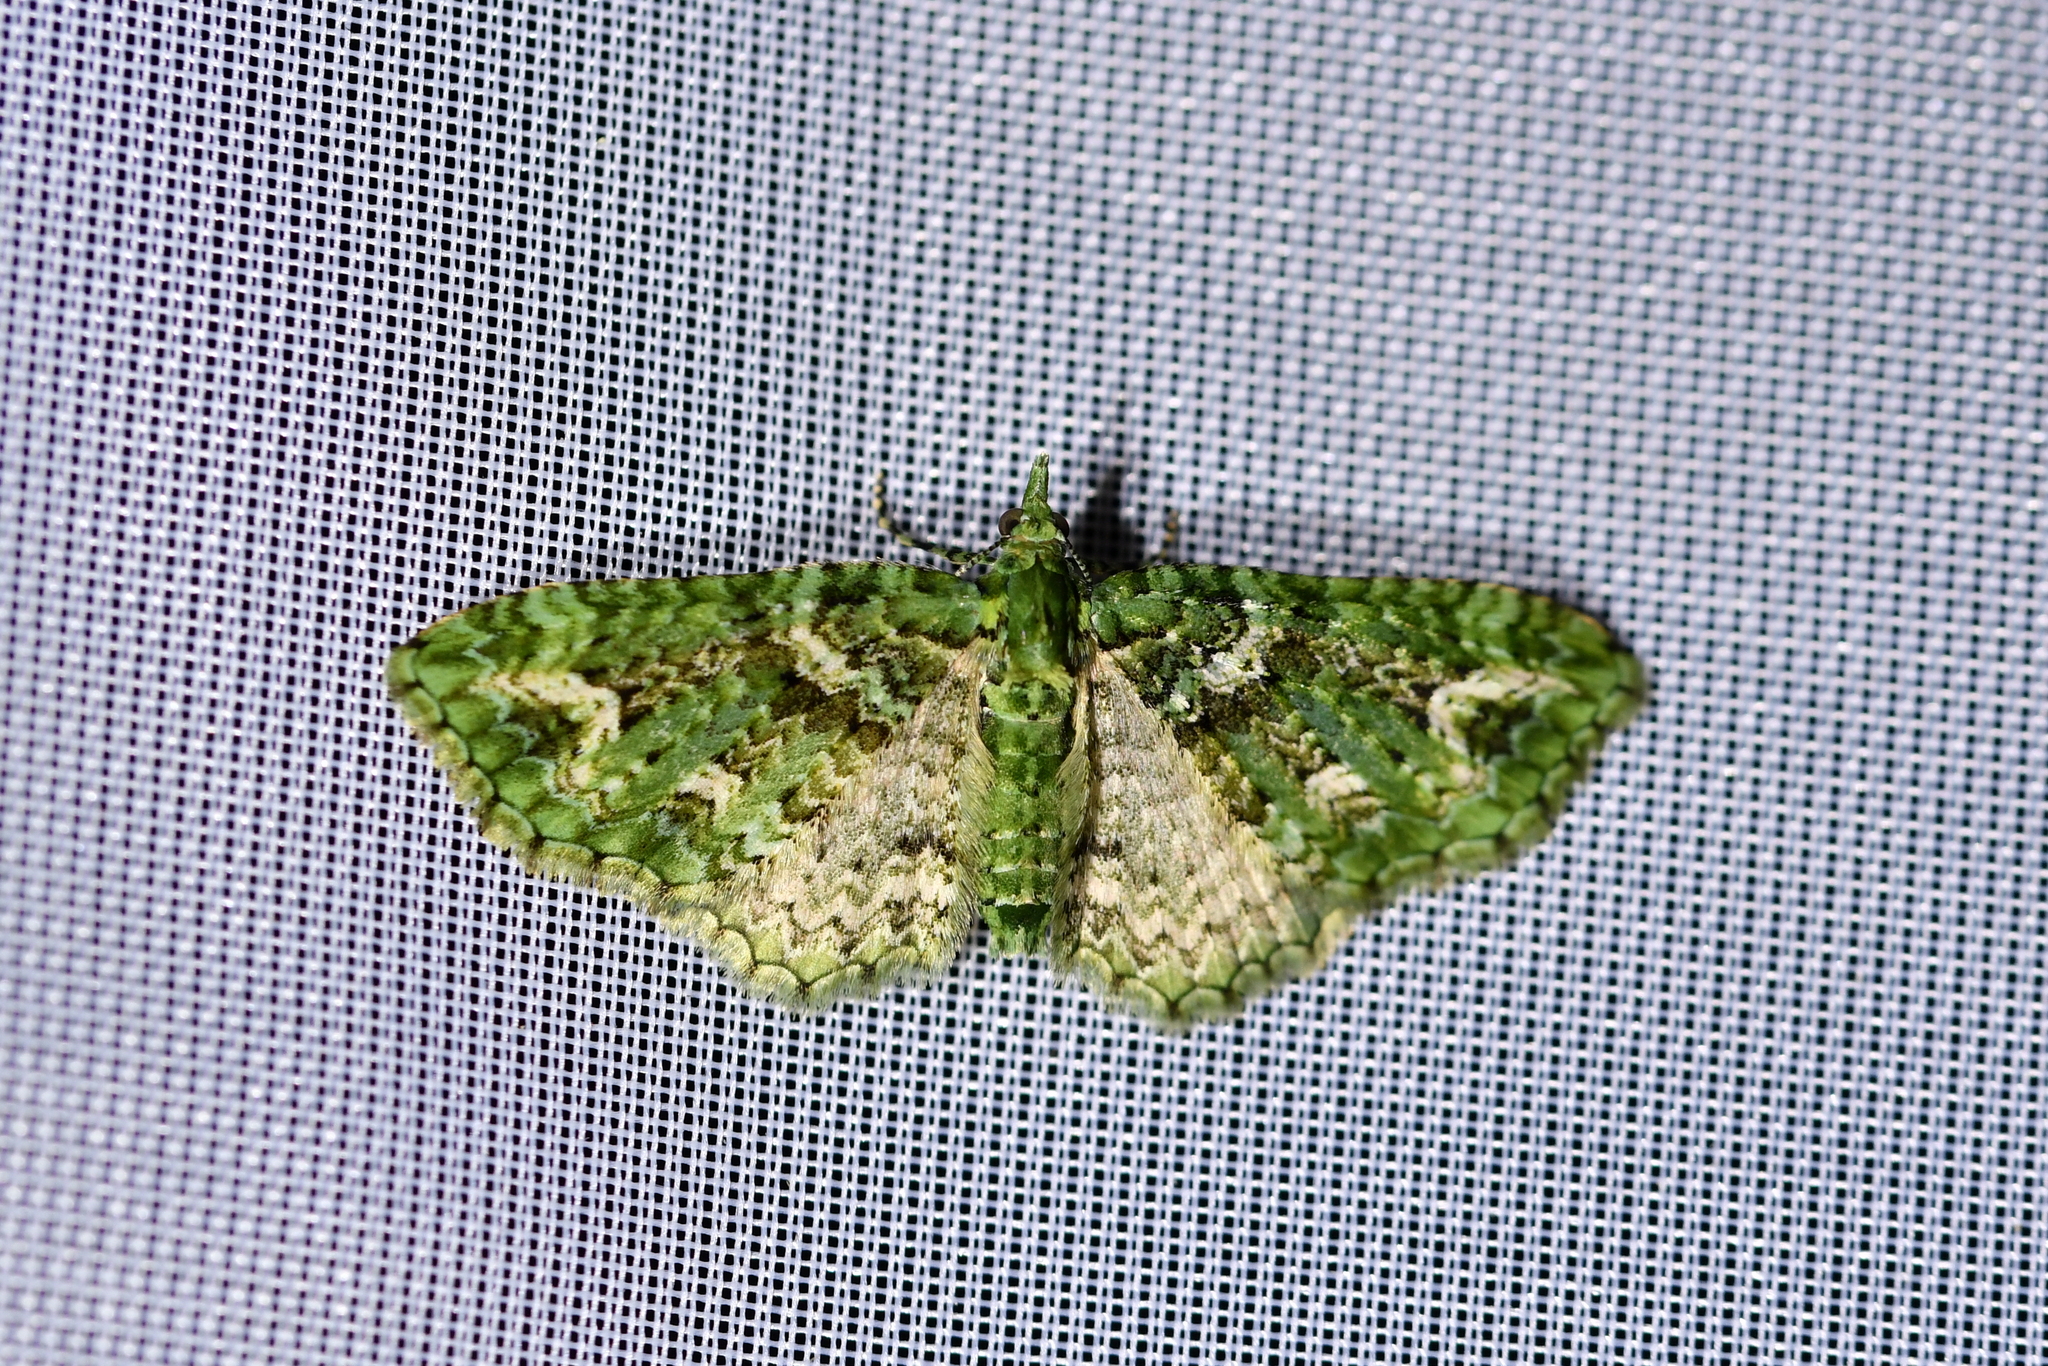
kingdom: Animalia
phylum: Arthropoda
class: Insecta
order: Lepidoptera
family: Geometridae
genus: Pasiphila
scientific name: Pasiphila muscosata
